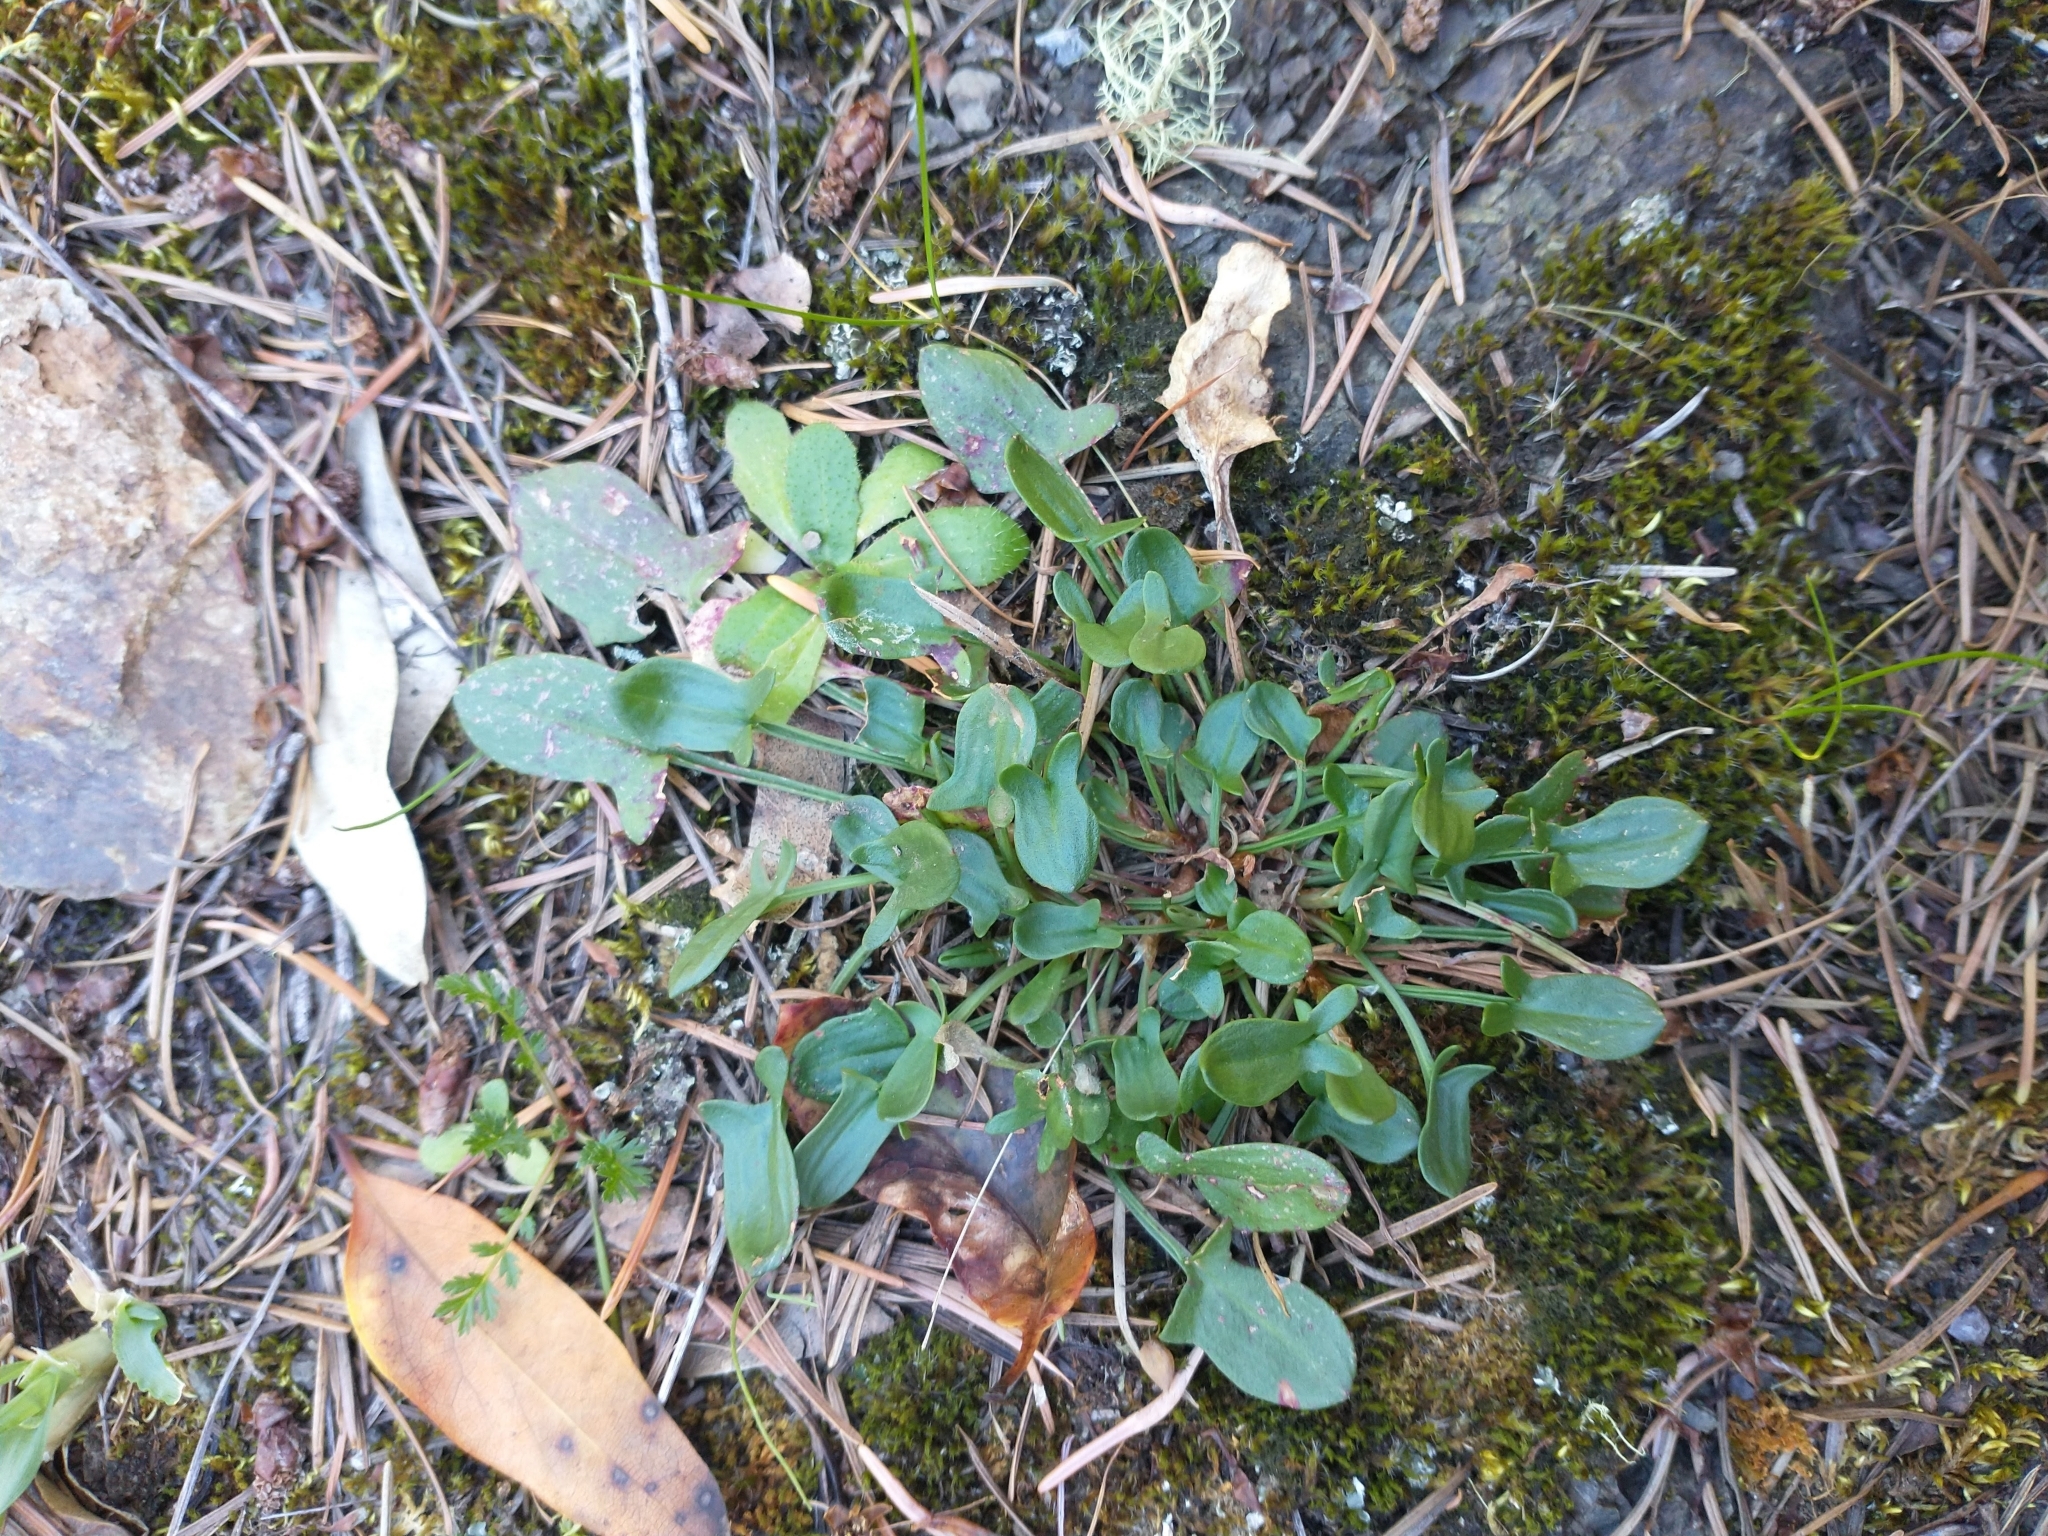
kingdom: Plantae
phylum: Tracheophyta
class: Magnoliopsida
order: Caryophyllales
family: Polygonaceae
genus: Rumex
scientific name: Rumex acetosella
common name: Common sheep sorrel
